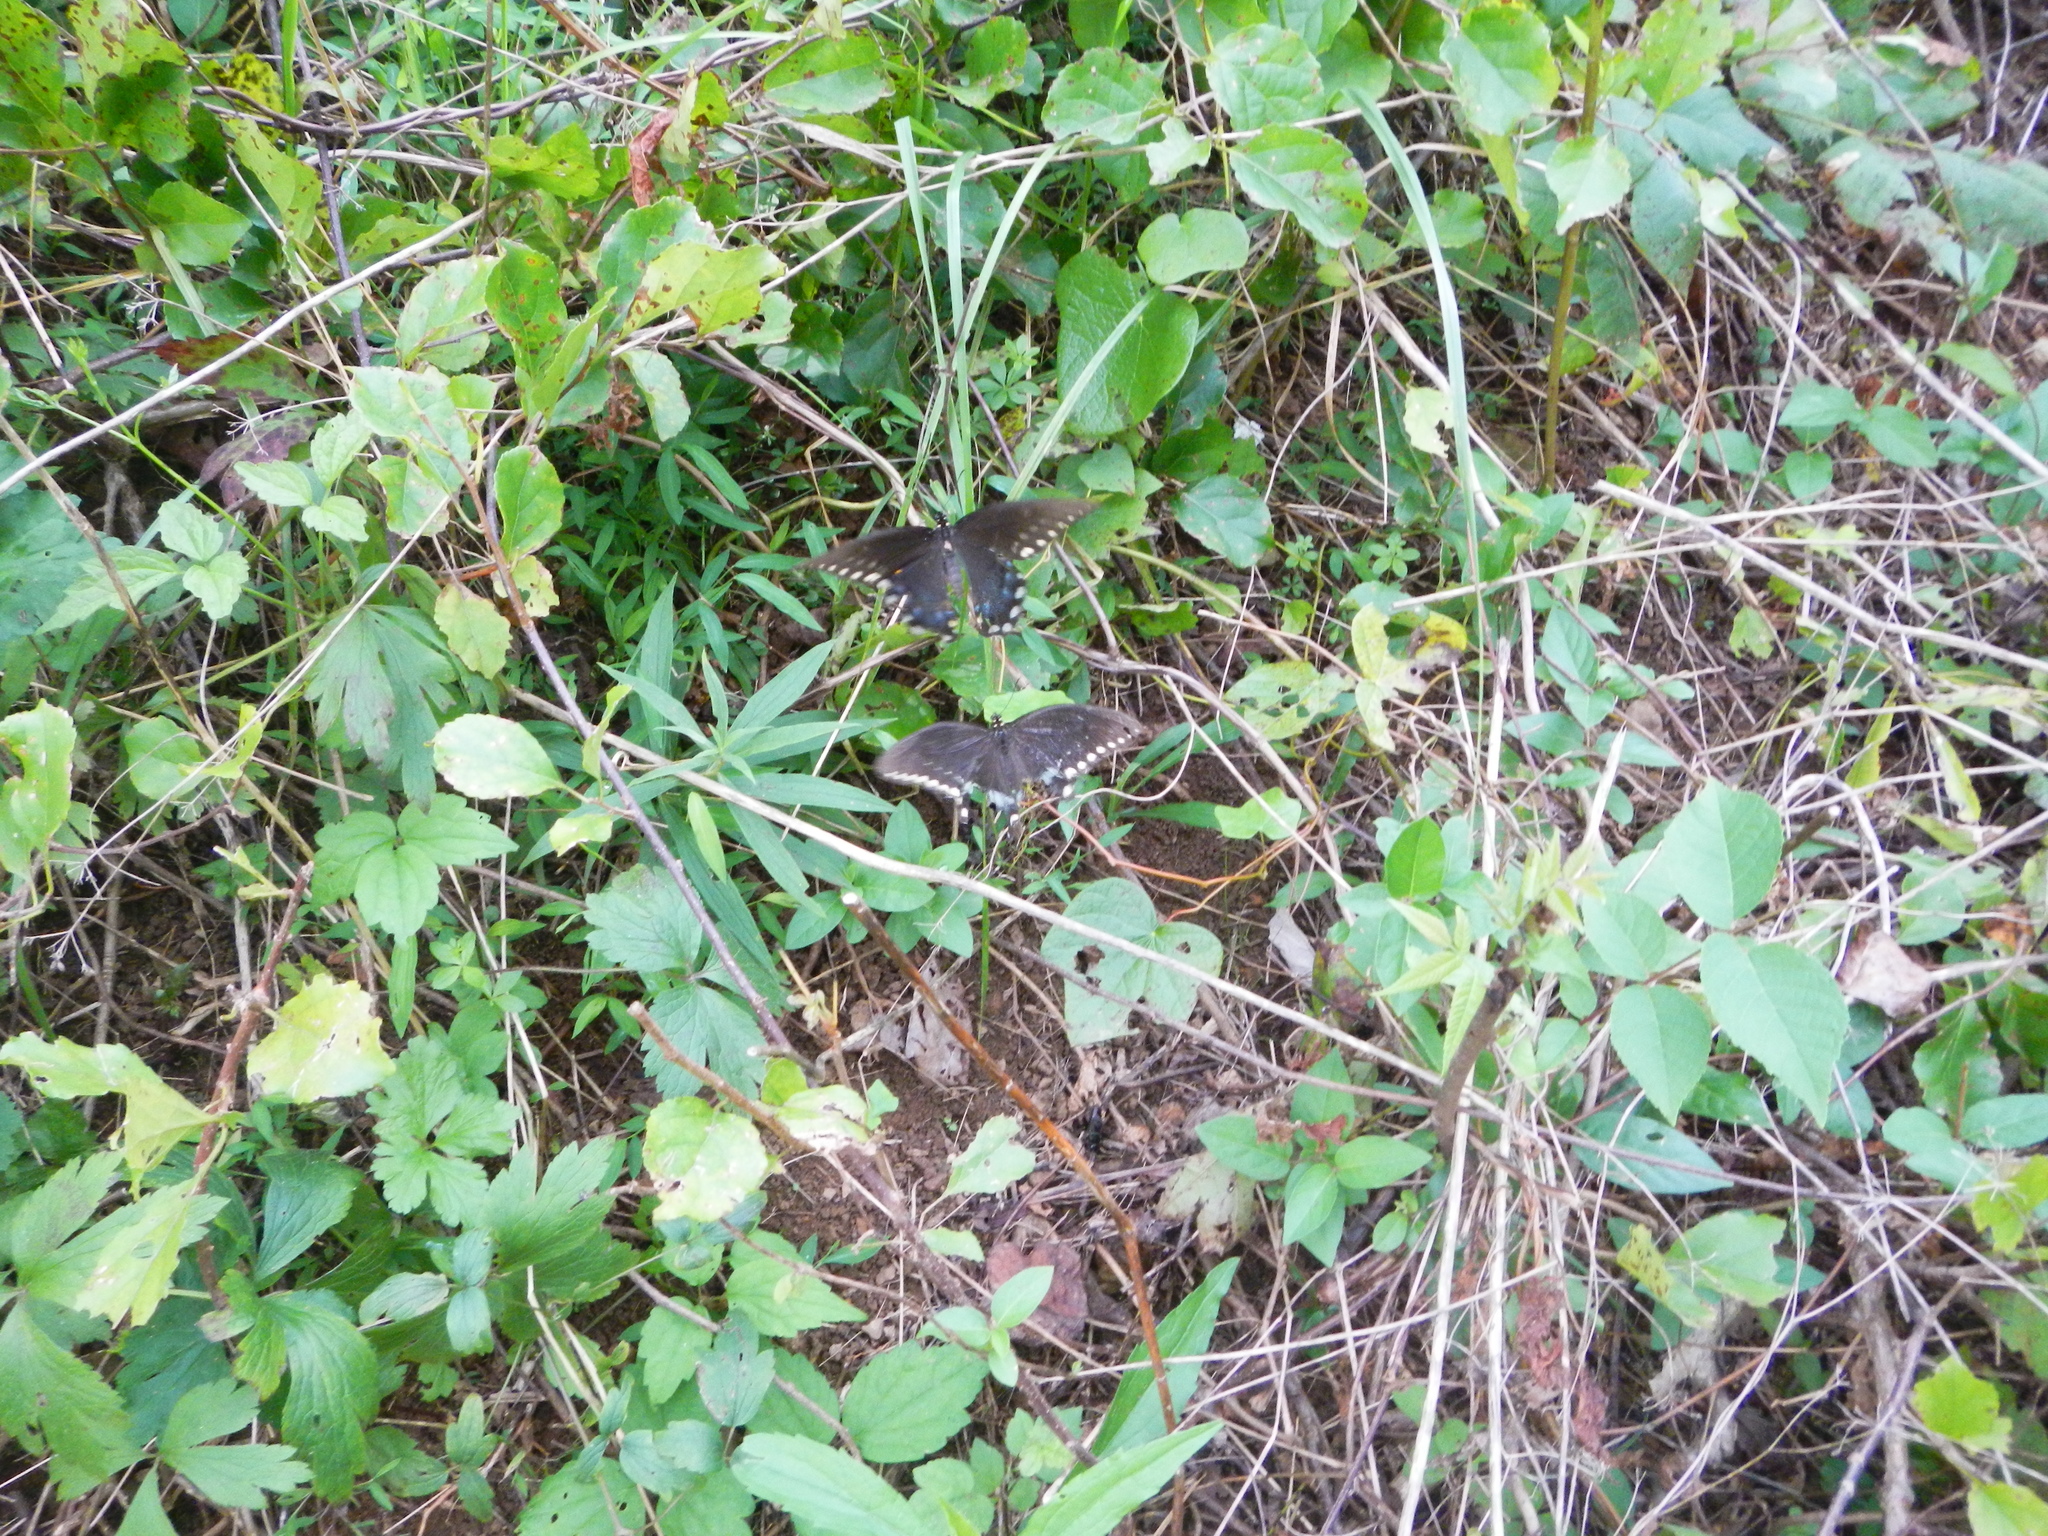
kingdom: Animalia
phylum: Arthropoda
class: Insecta
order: Lepidoptera
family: Papilionidae
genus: Papilio
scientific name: Papilio troilus
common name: Spicebush swallowtail
